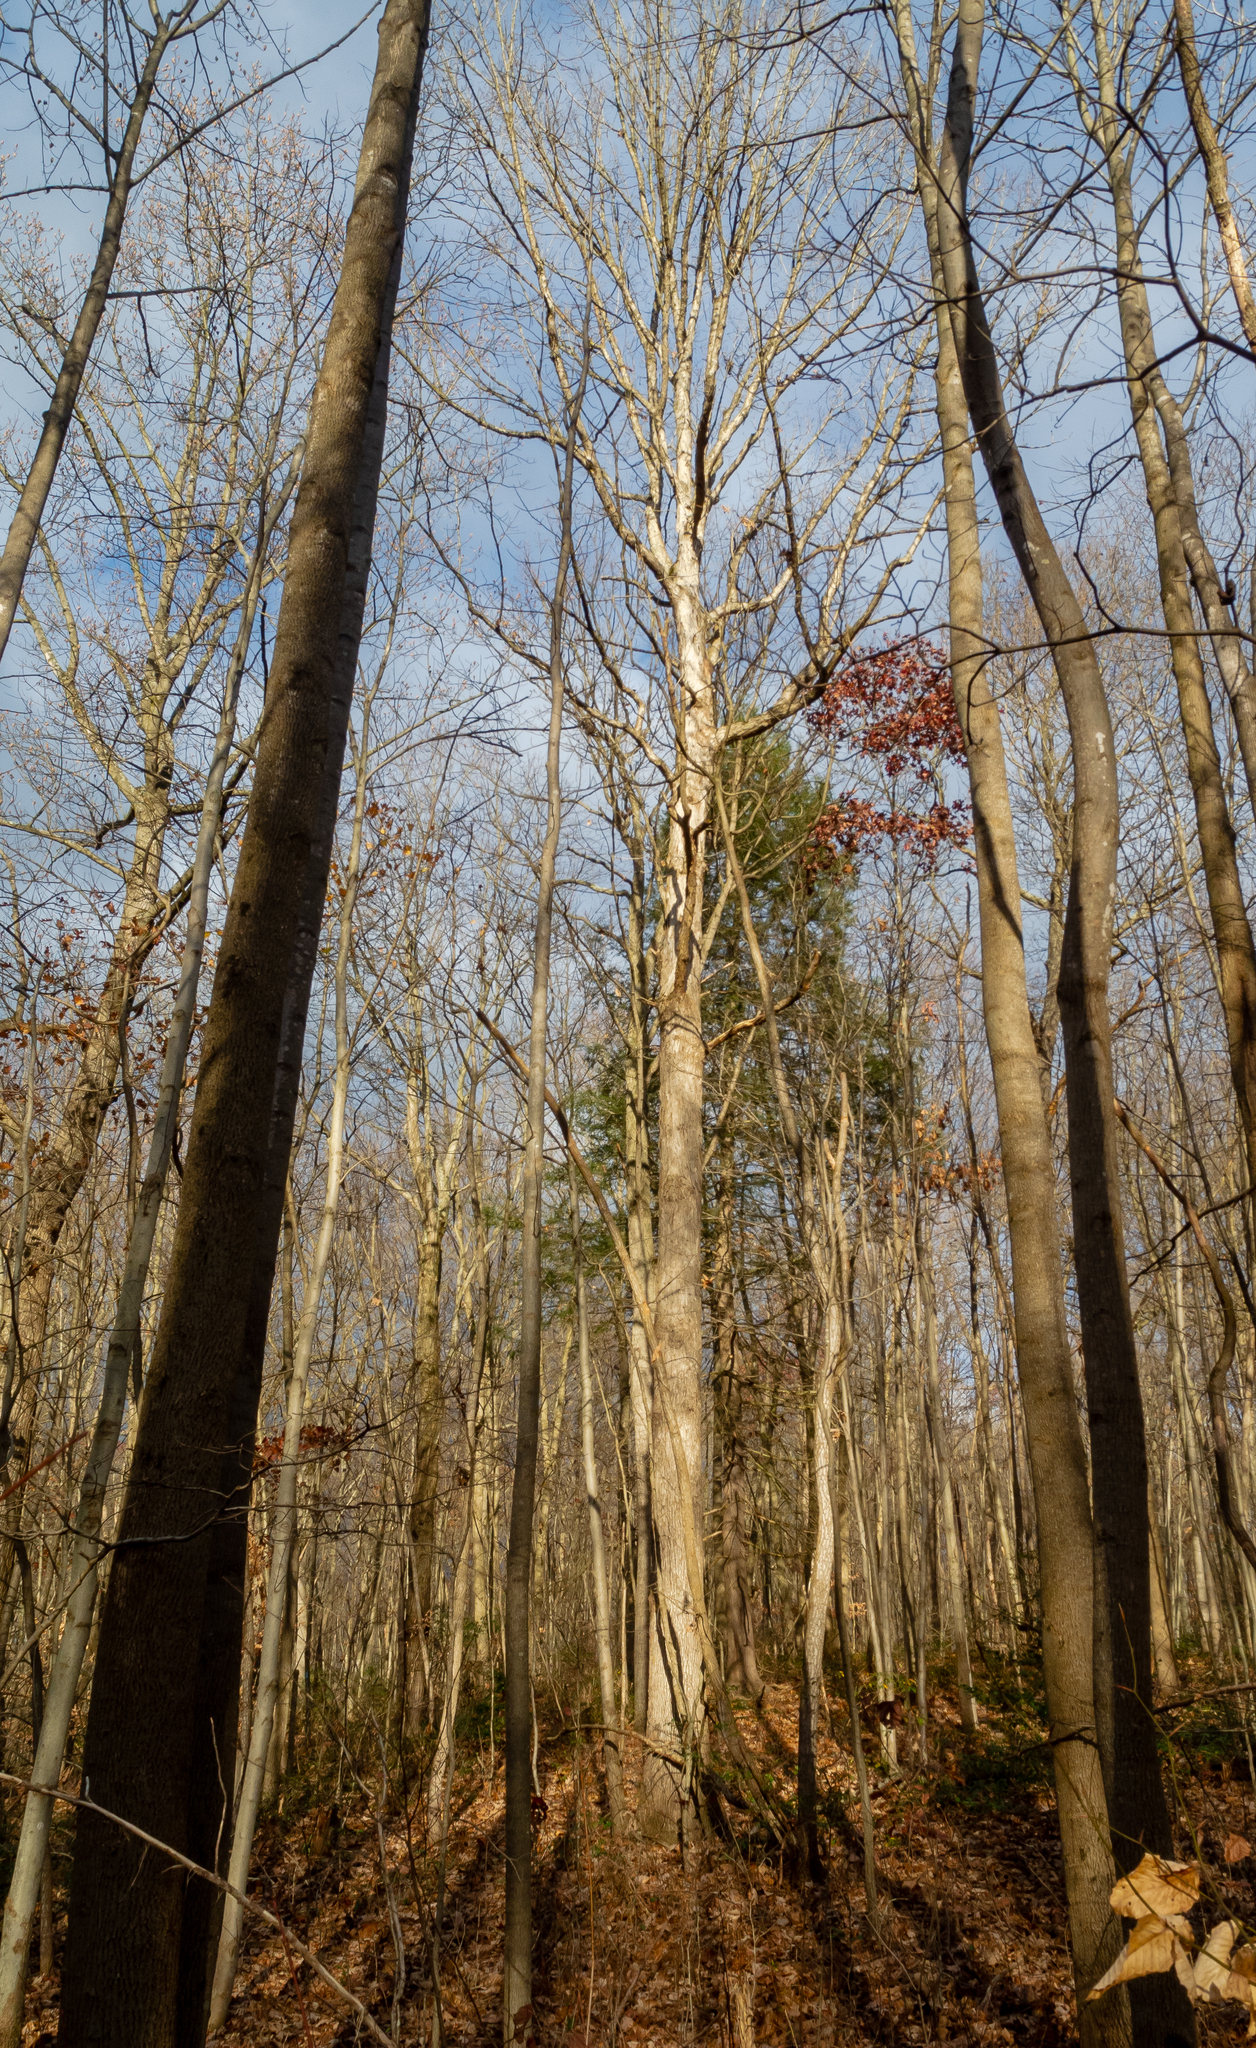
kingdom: Plantae
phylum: Tracheophyta
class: Magnoliopsida
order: Fagales
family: Fagaceae
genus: Quercus
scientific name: Quercus alba
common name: White oak
